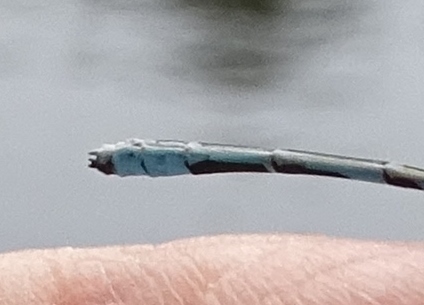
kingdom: Animalia
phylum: Arthropoda
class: Insecta
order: Odonata
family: Coenagrionidae
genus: Enallagma
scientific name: Enallagma ebrium
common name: Marsh bluet
